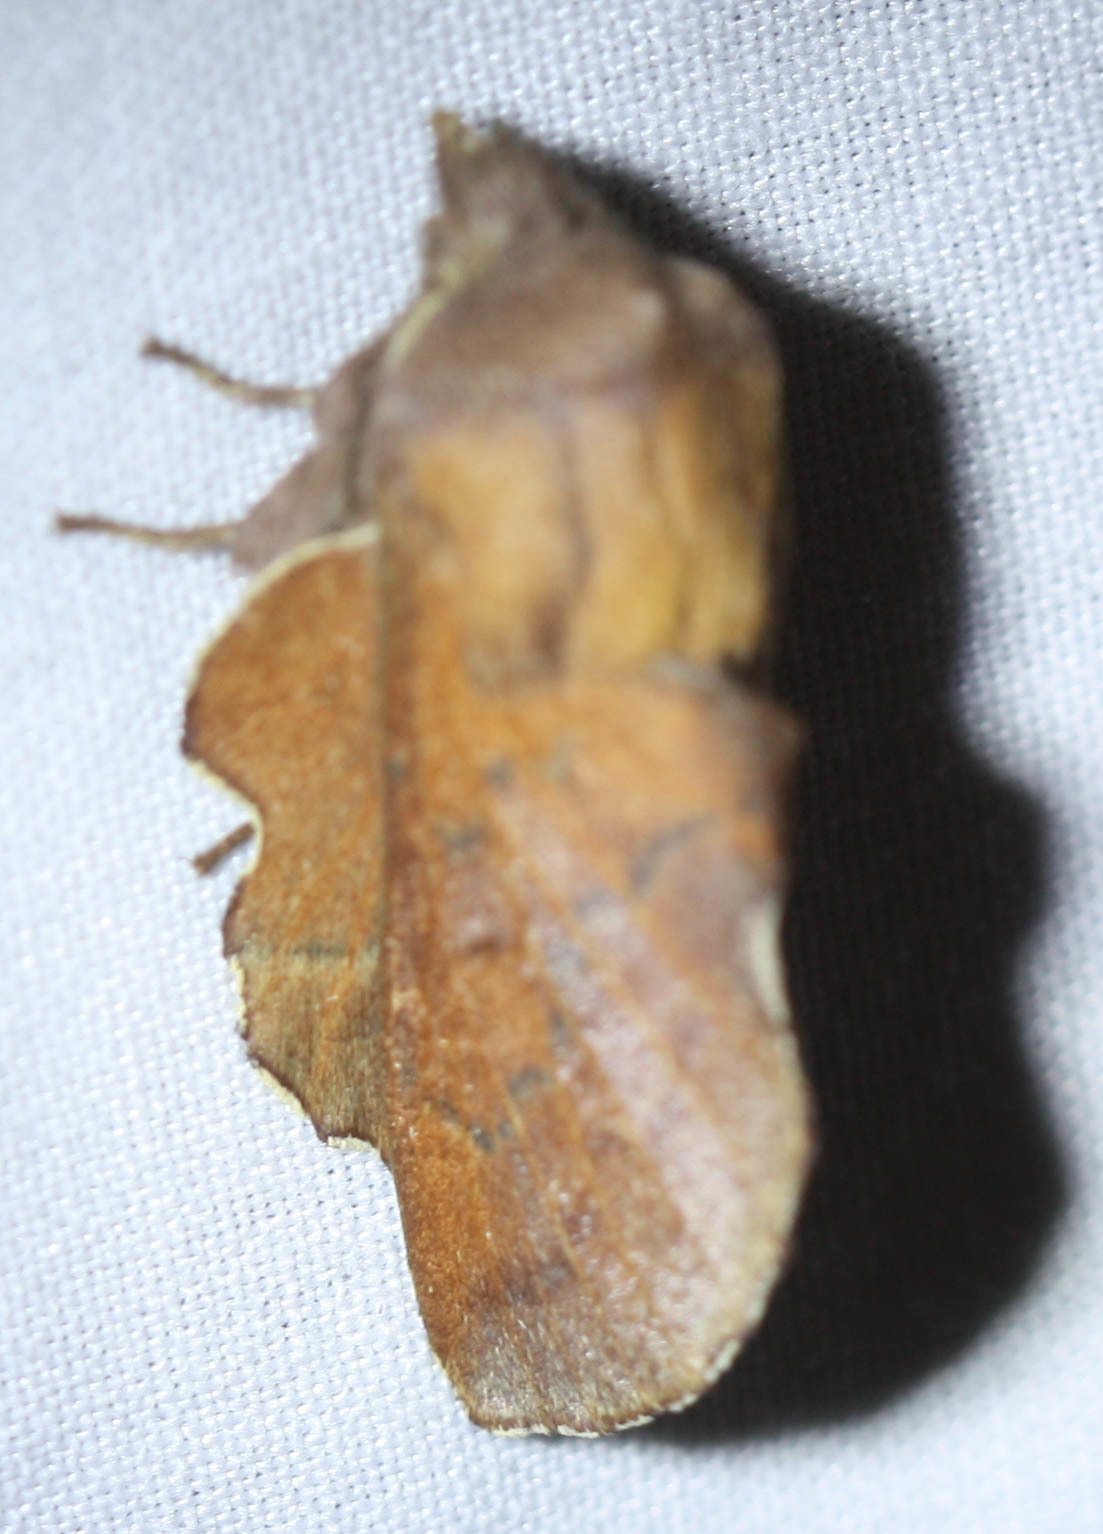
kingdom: Animalia
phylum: Arthropoda
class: Insecta
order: Lepidoptera
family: Lasiocampidae
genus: Phyllodesma
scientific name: Phyllodesma americana
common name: American lappet moth
